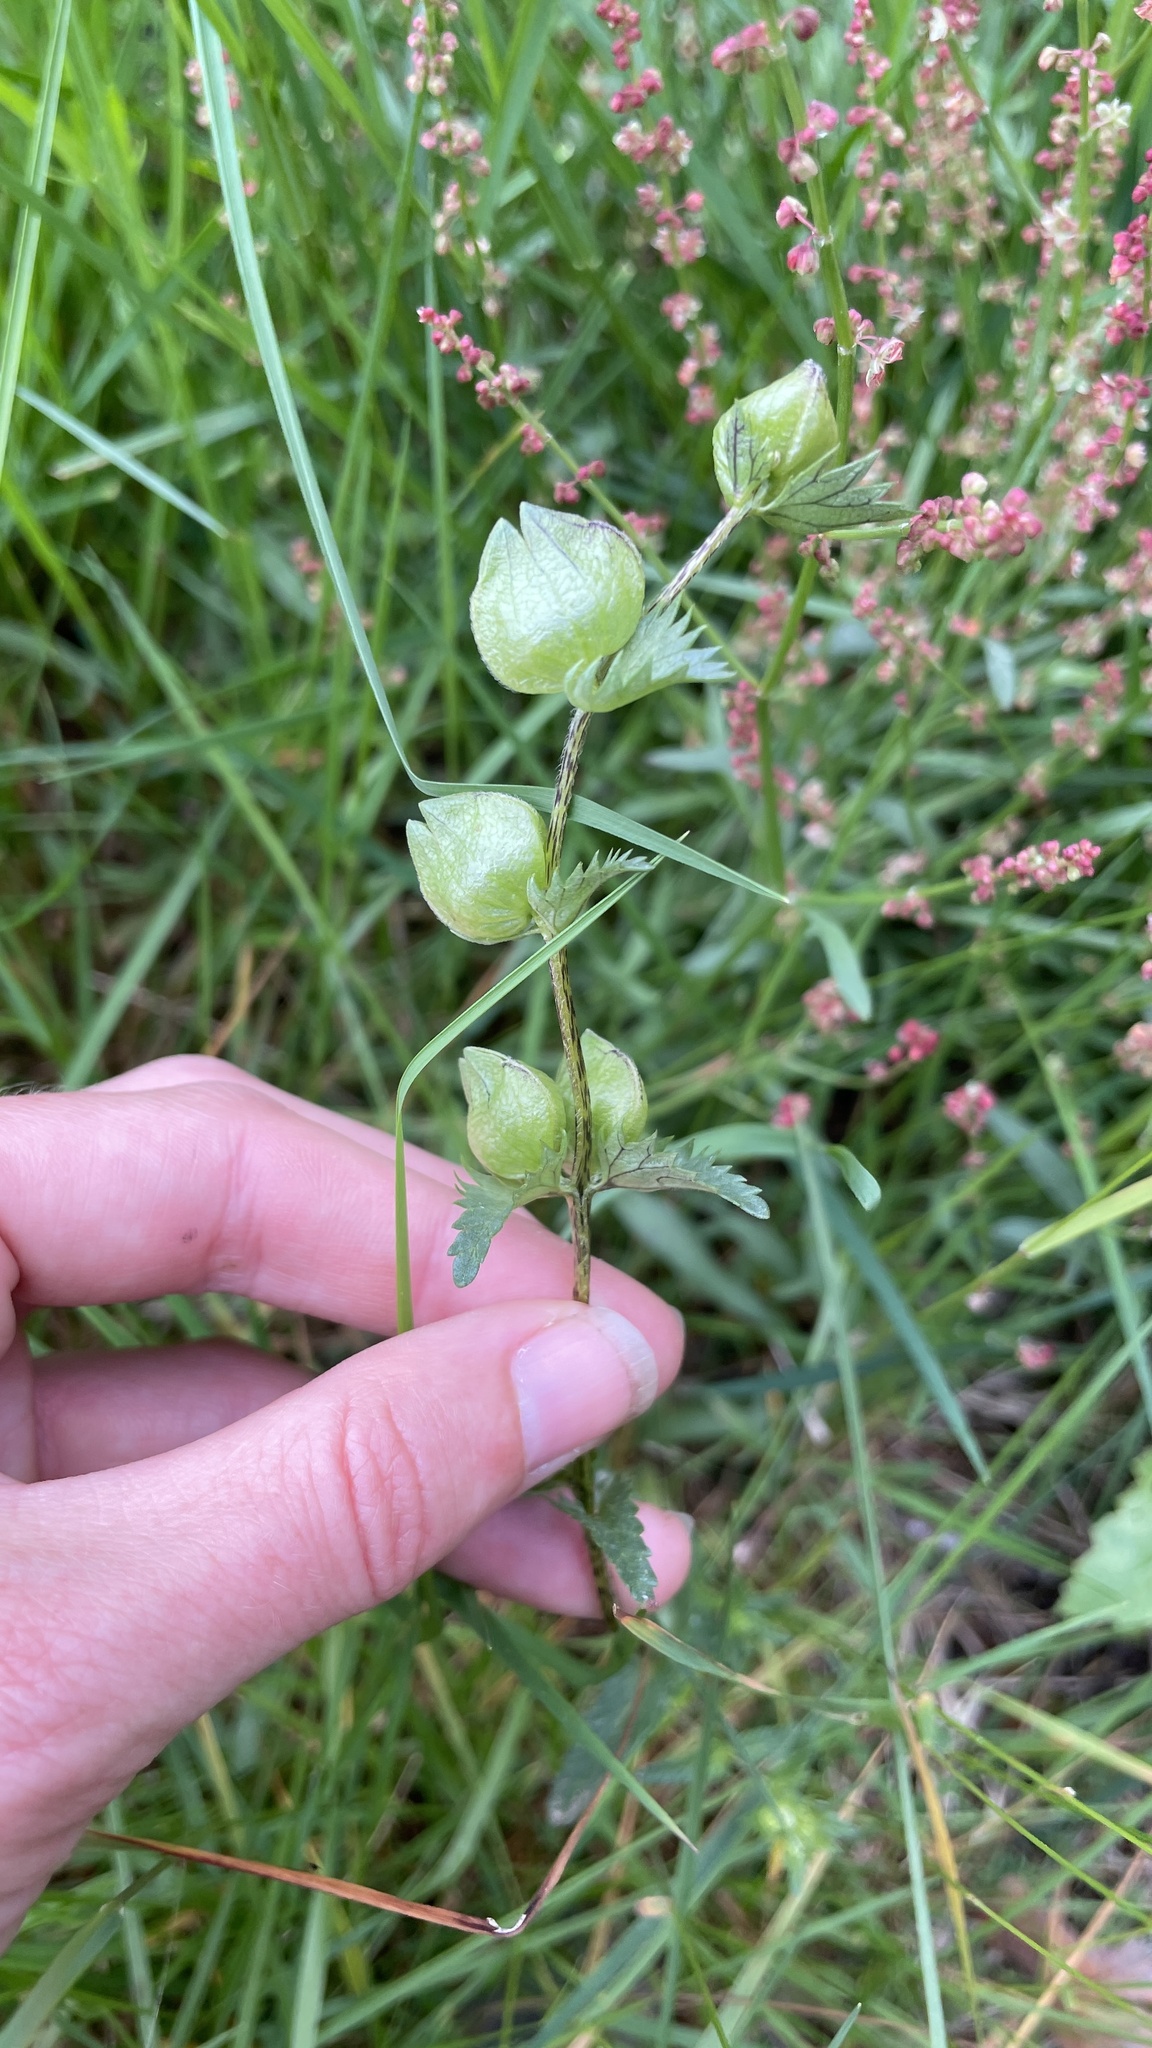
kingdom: Plantae
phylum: Tracheophyta
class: Magnoliopsida
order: Lamiales
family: Orobanchaceae
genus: Rhinanthus
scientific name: Rhinanthus minor
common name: Yellow-rattle
